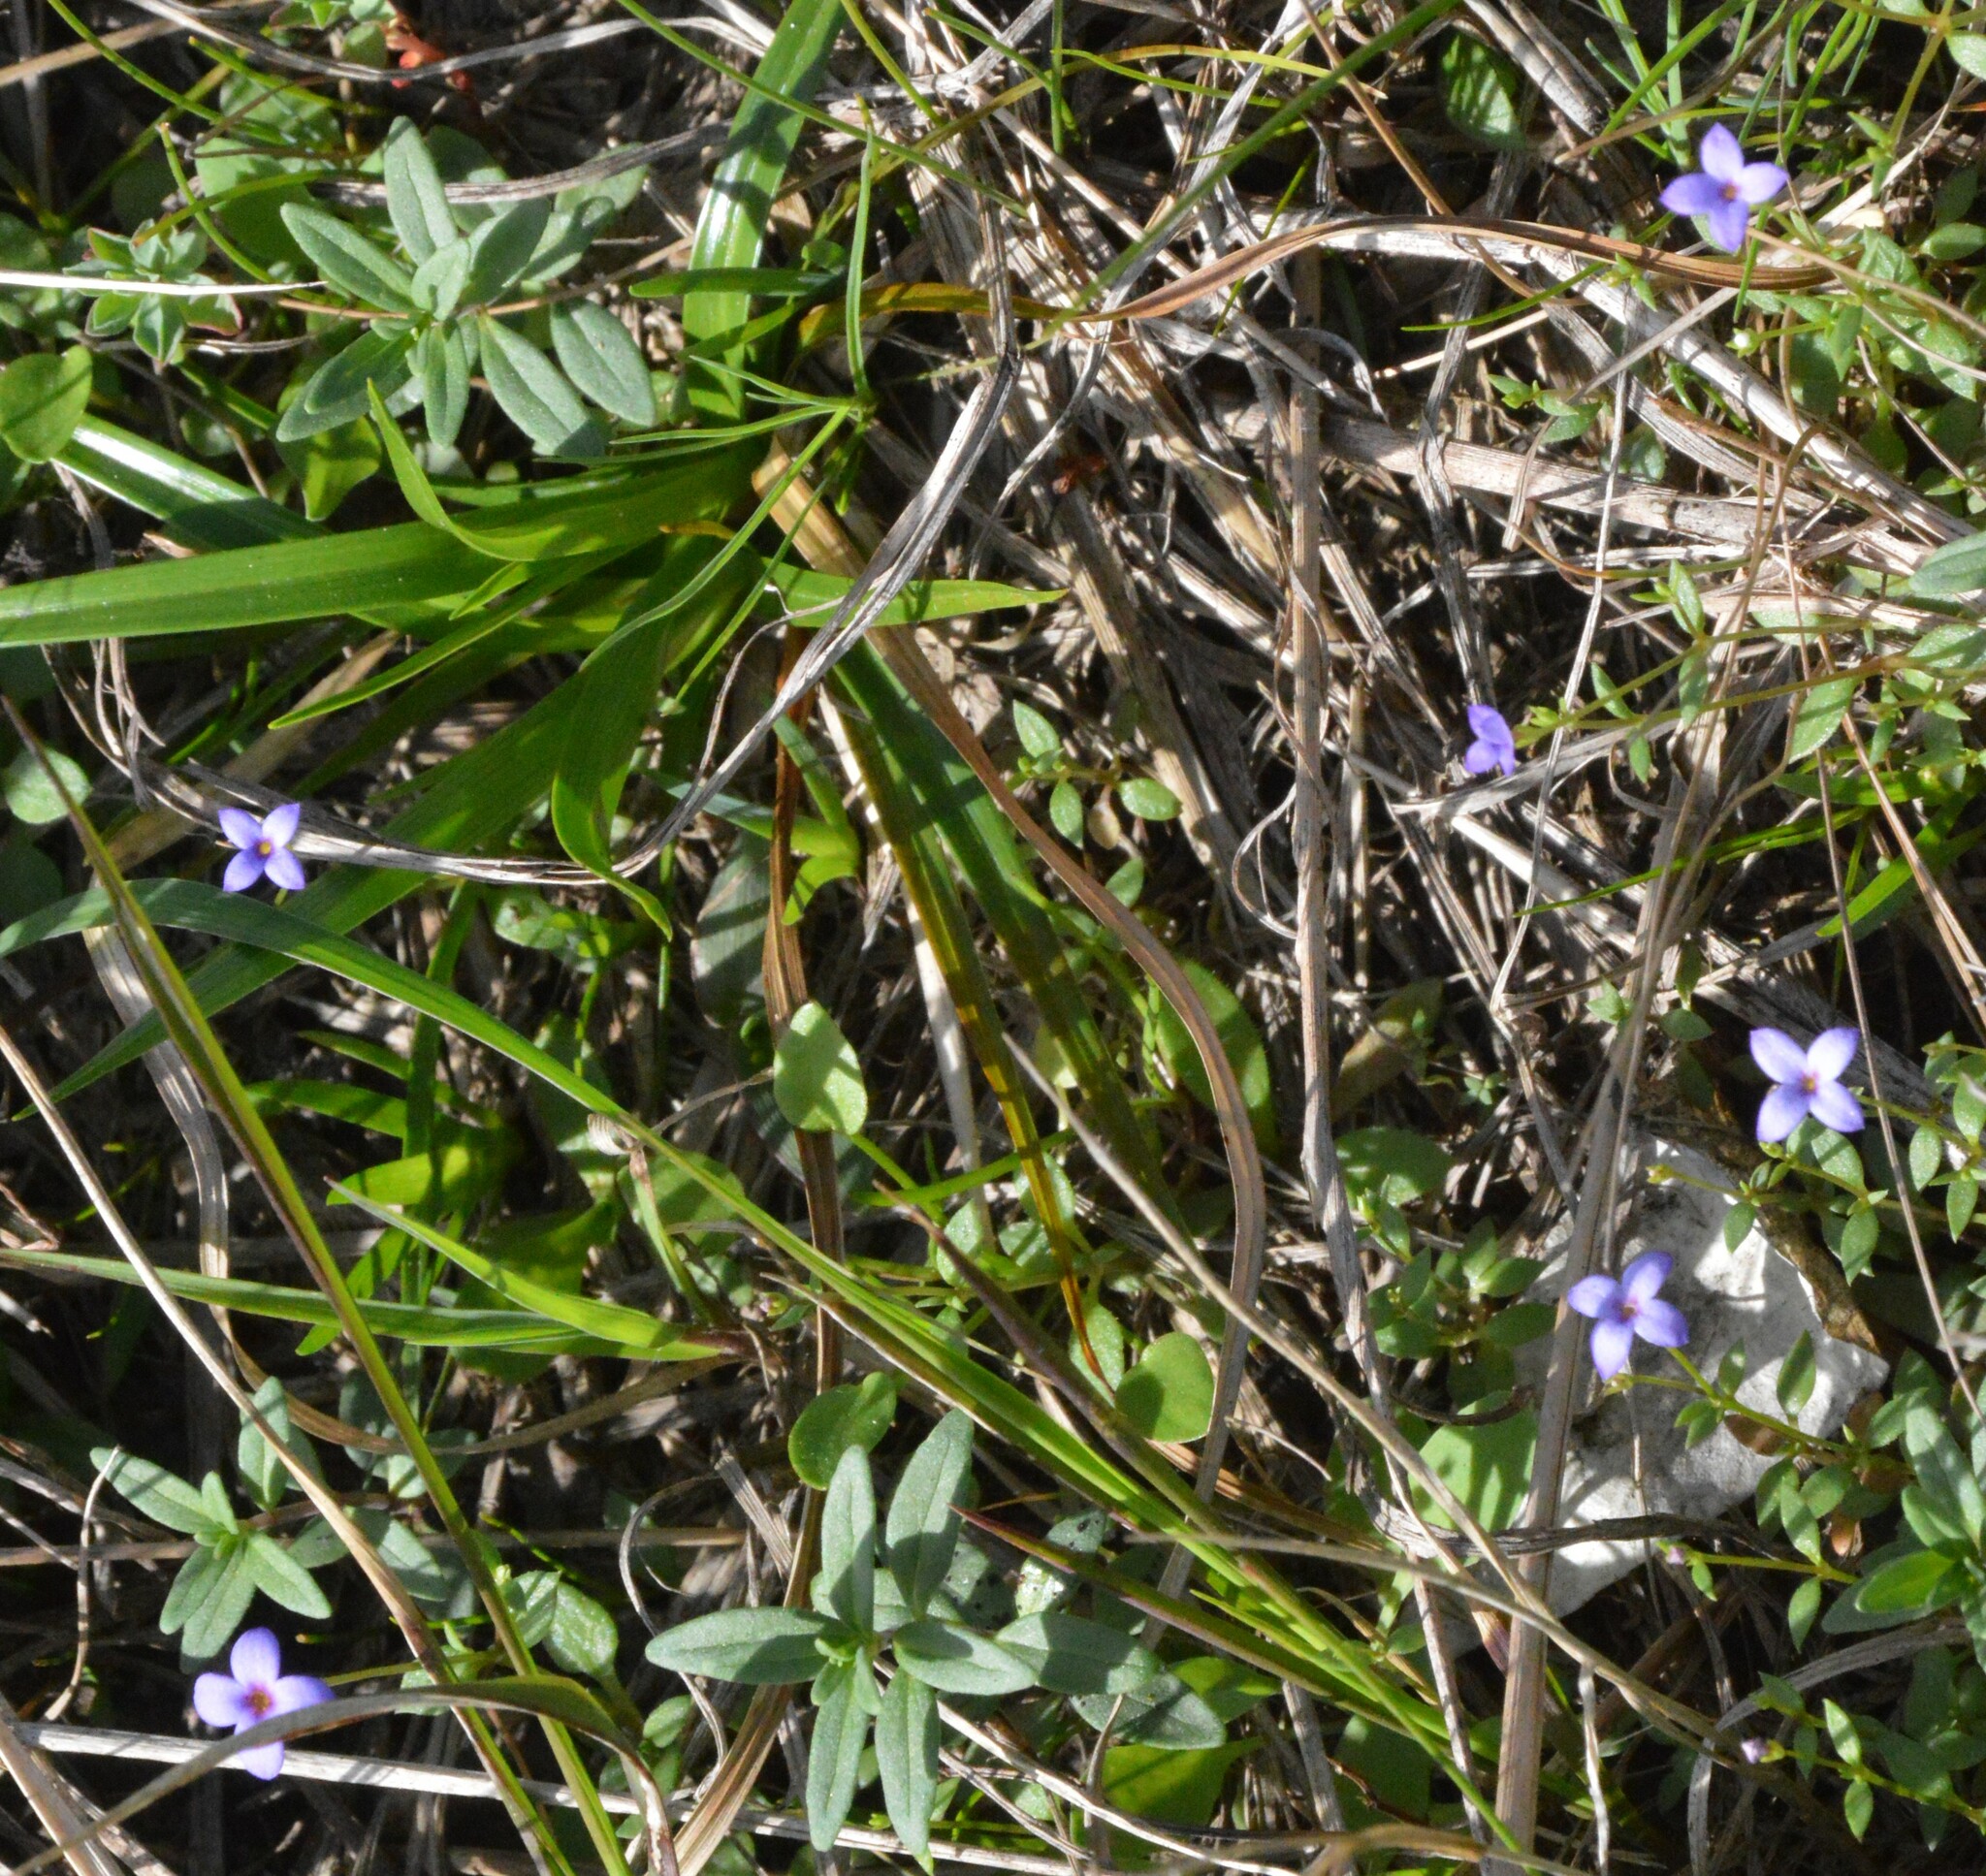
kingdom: Plantae
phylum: Tracheophyta
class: Magnoliopsida
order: Gentianales
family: Rubiaceae
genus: Houstonia
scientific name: Houstonia pusilla
